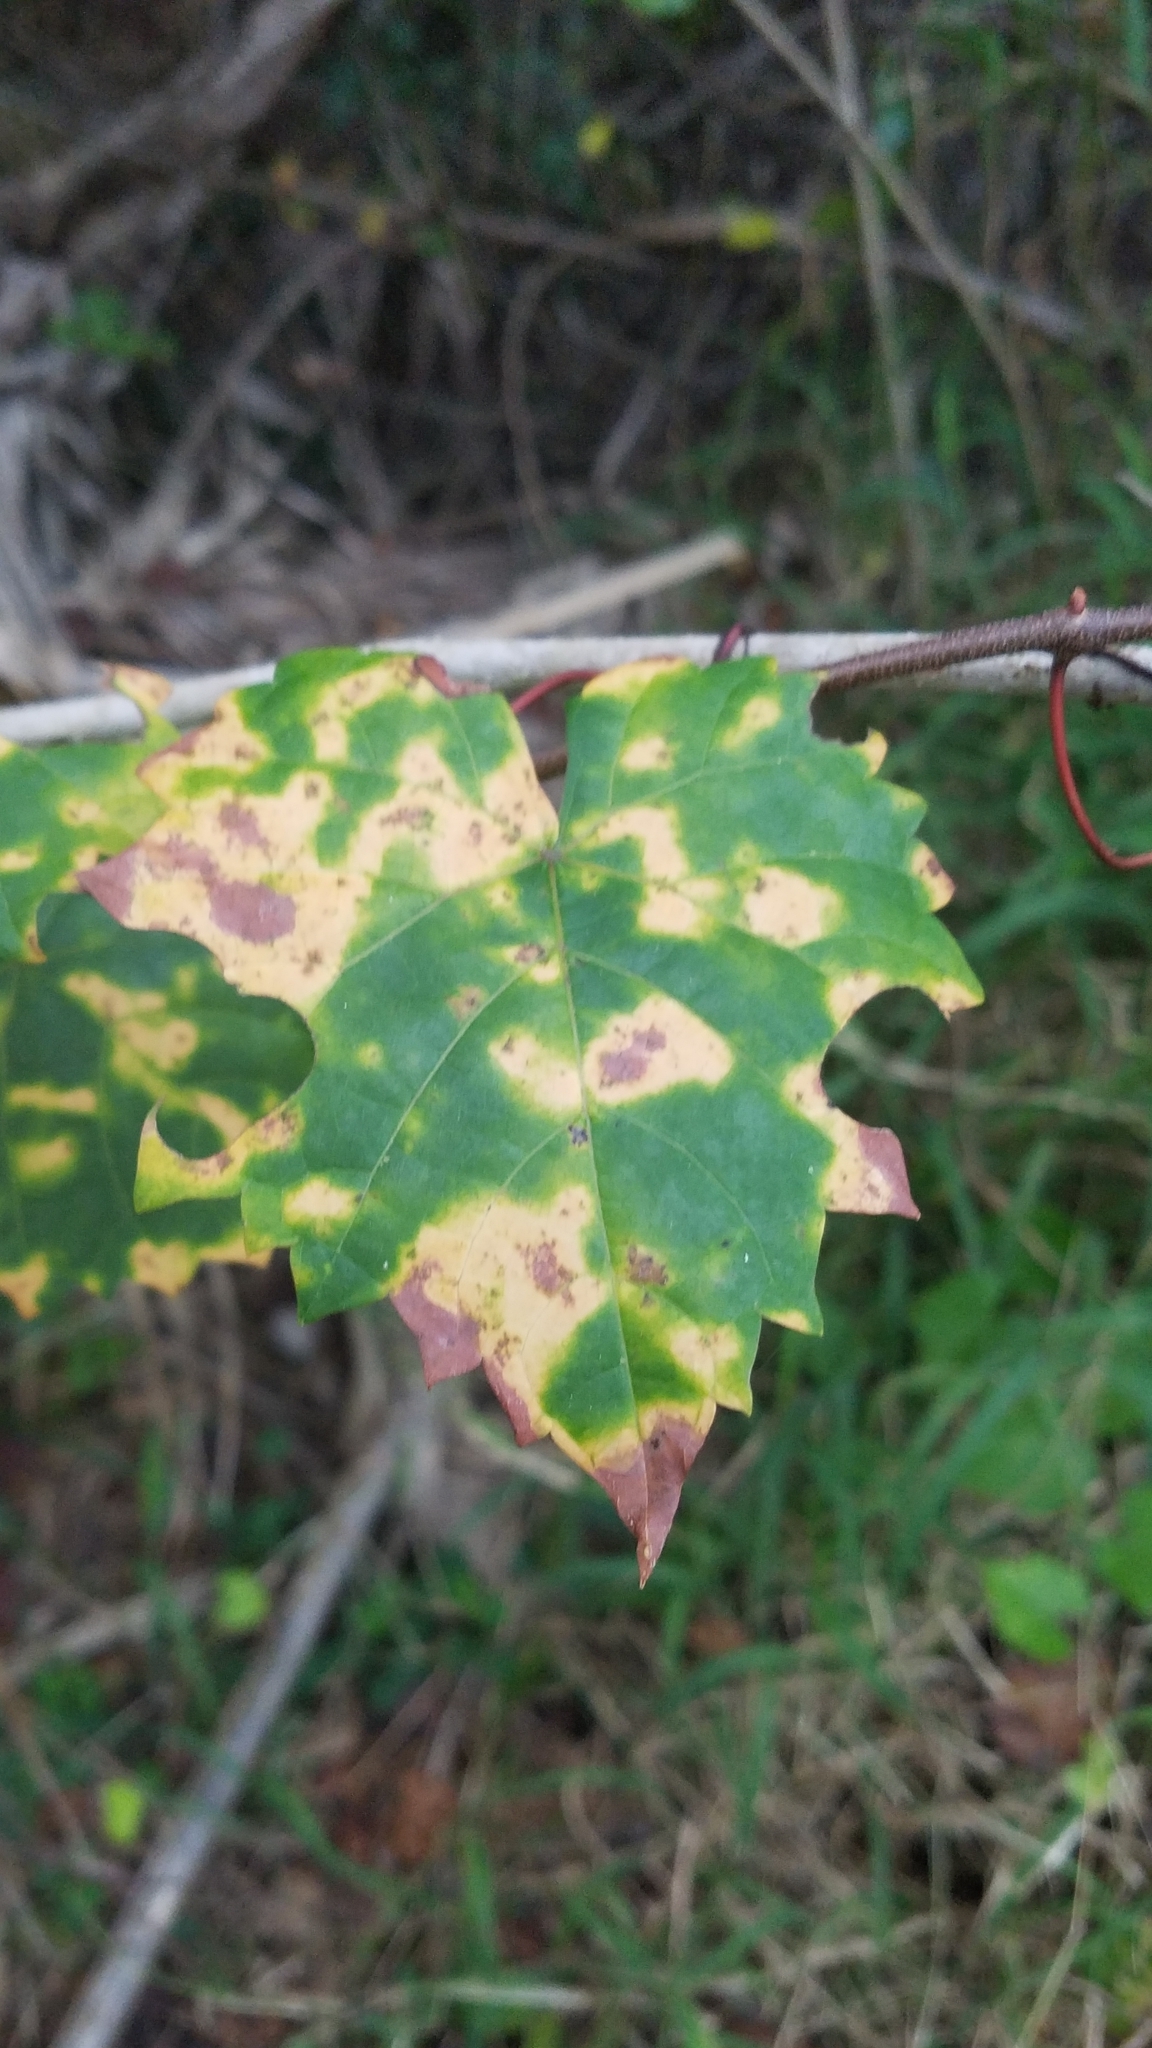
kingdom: Plantae
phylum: Tracheophyta
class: Magnoliopsida
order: Vitales
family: Vitaceae
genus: Vitis
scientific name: Vitis rotundifolia
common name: Muscadine grape
